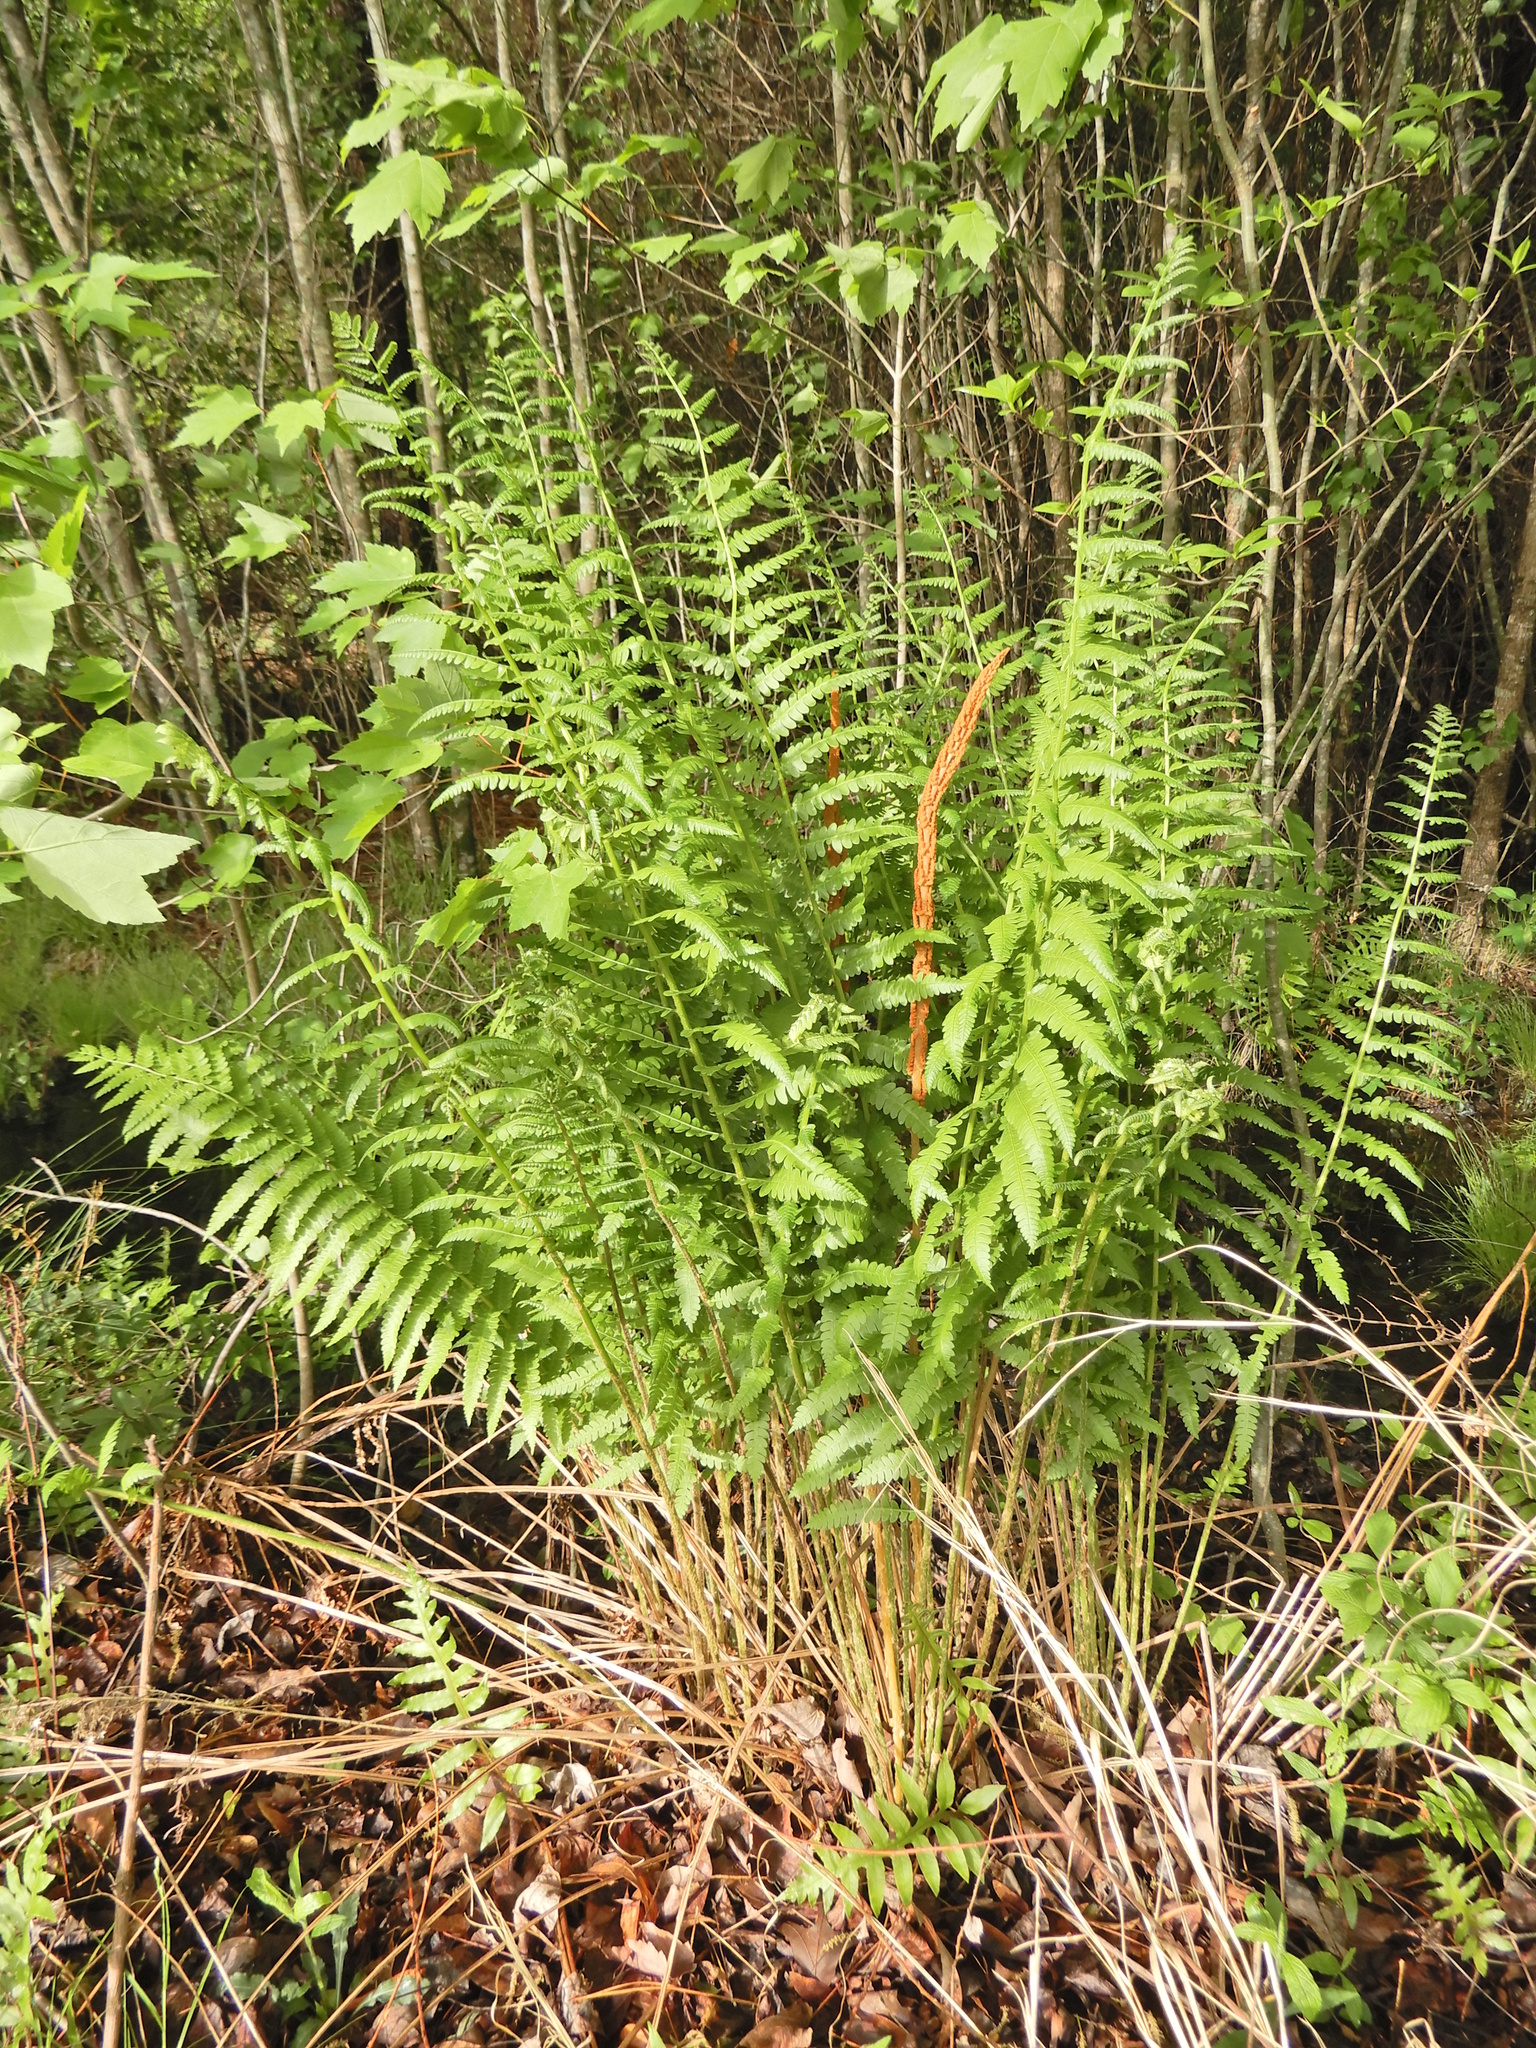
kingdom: Plantae
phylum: Tracheophyta
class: Polypodiopsida
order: Osmundales
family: Osmundaceae
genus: Osmundastrum
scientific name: Osmundastrum cinnamomeum
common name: Cinnamon fern
